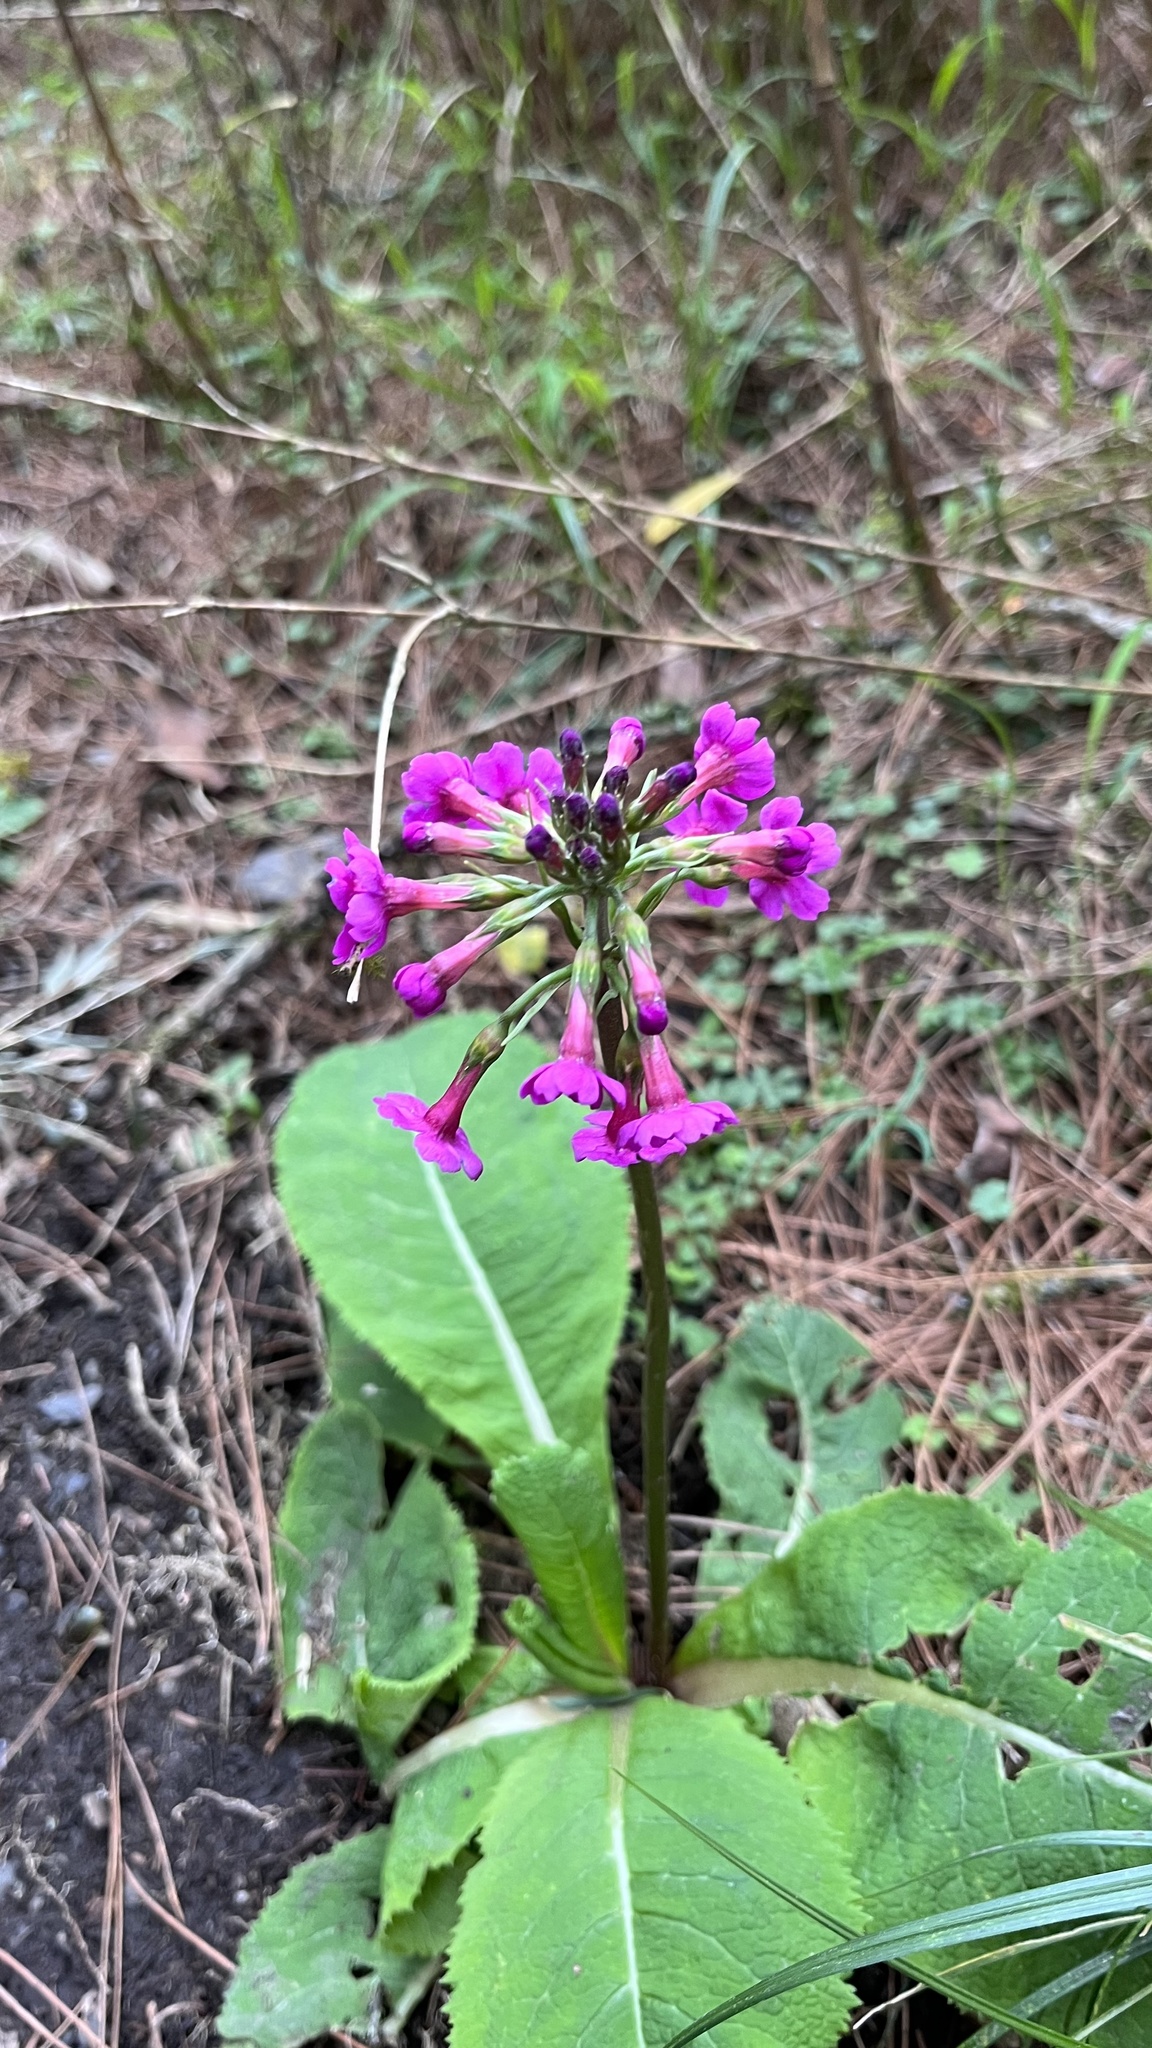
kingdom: Plantae
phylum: Tracheophyta
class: Magnoliopsida
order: Ericales
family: Primulaceae
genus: Primula
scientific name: Primula miyabeana
